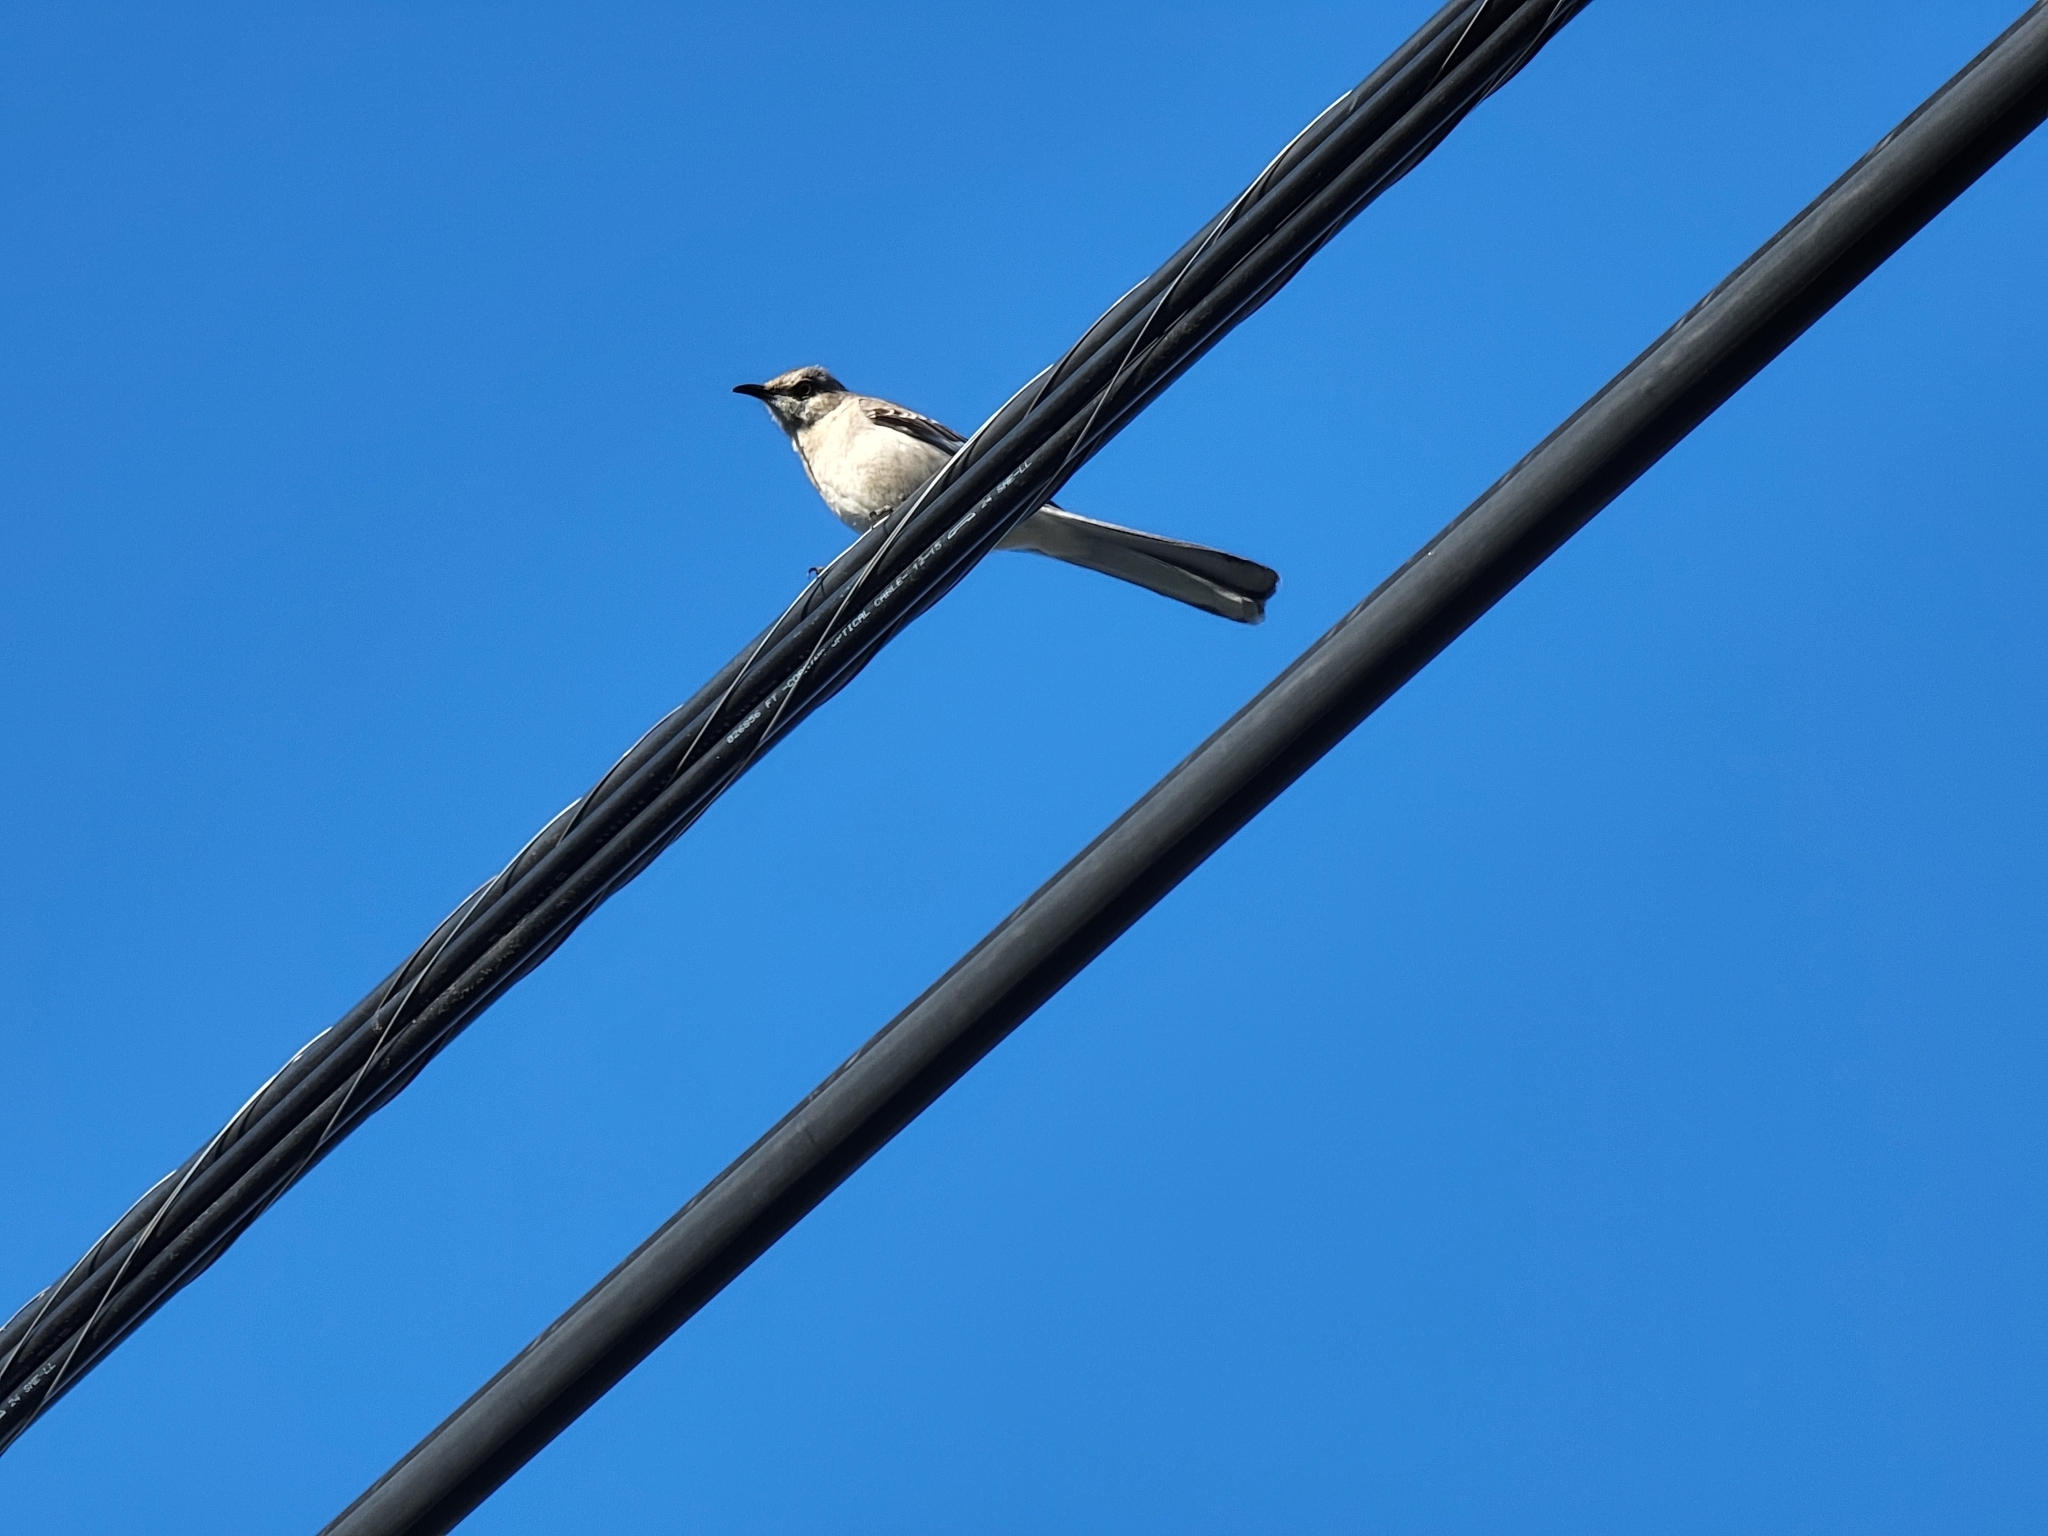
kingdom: Animalia
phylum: Chordata
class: Aves
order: Passeriformes
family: Mimidae
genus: Mimus
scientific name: Mimus polyglottos
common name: Northern mockingbird
